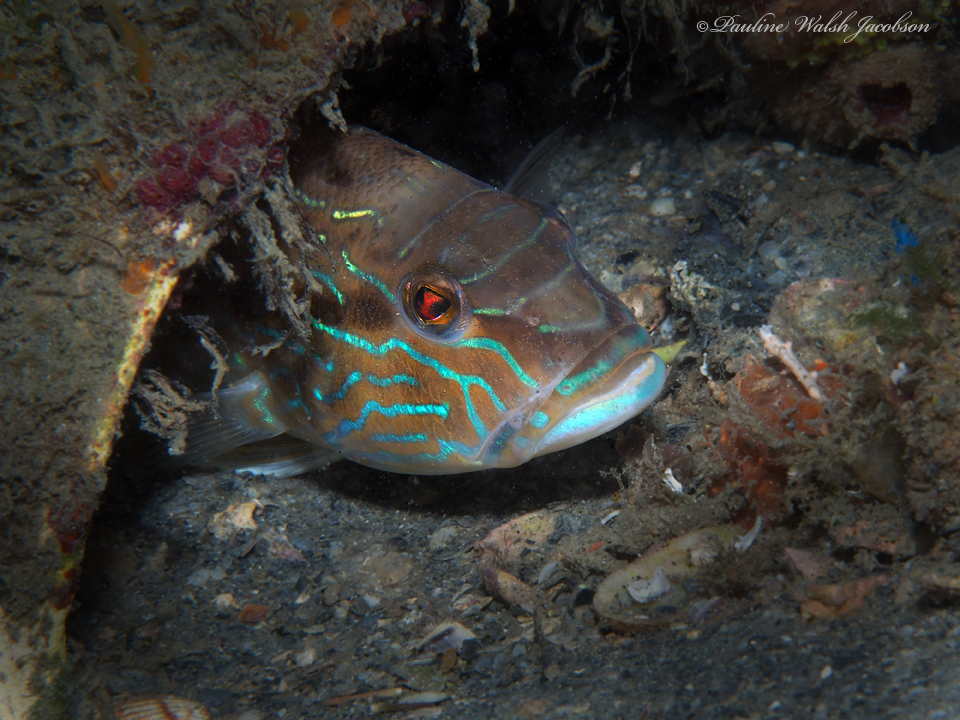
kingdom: Animalia
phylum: Chordata
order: Perciformes
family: Serranidae
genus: Diplectrum
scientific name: Diplectrum formosum
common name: Sand perch
